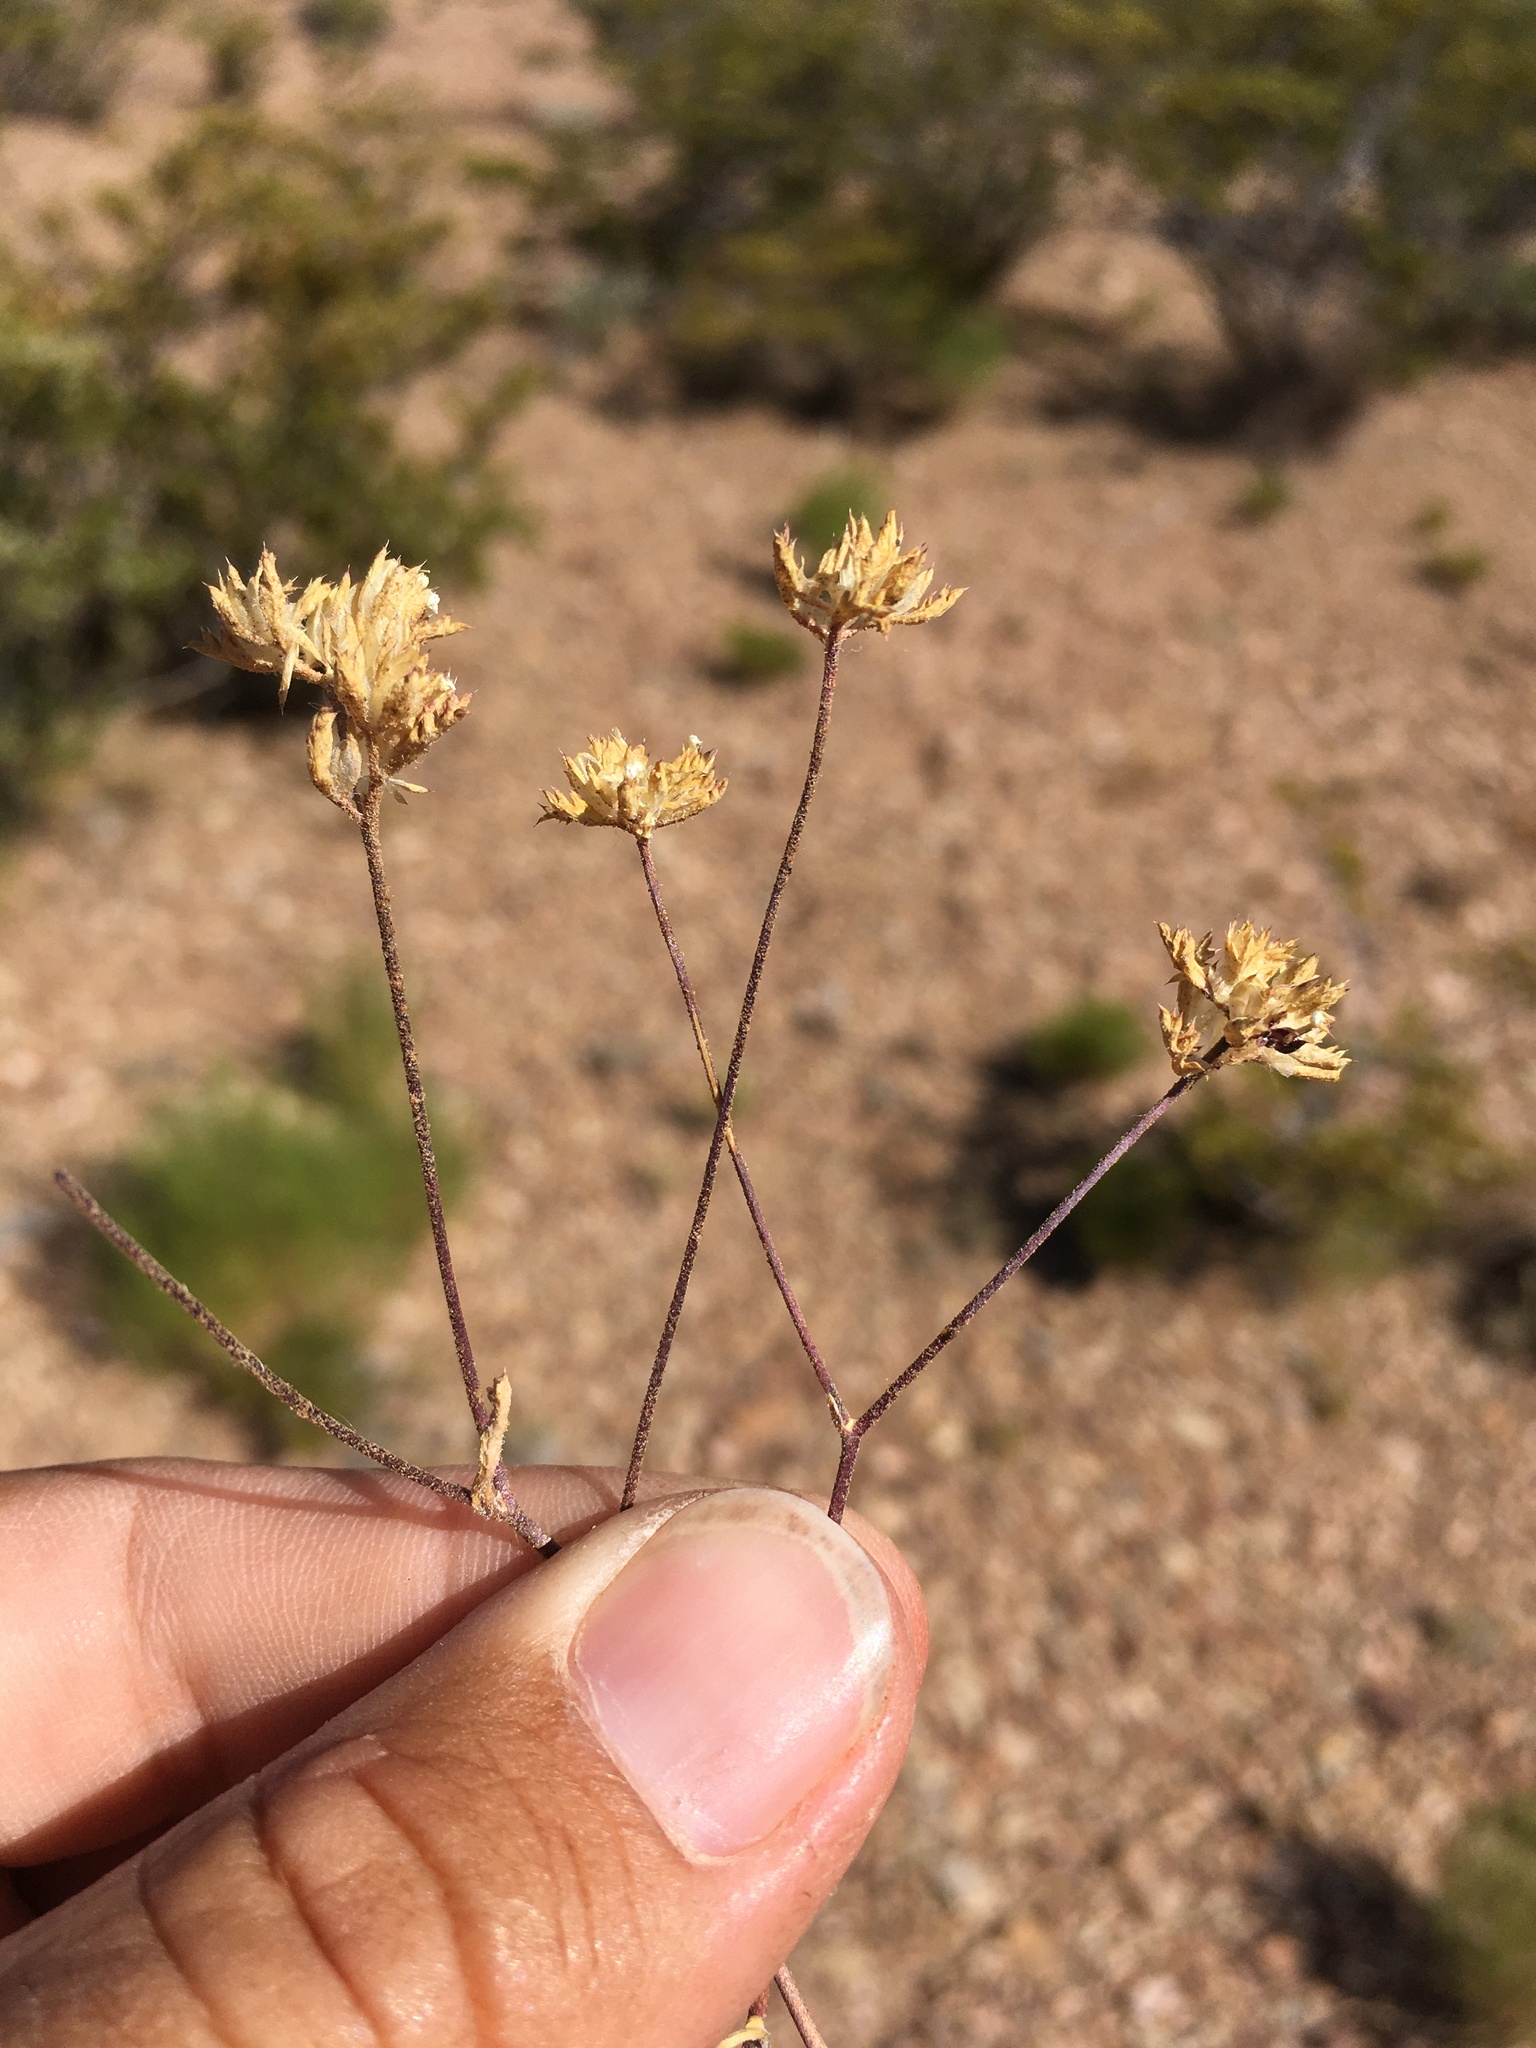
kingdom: Plantae
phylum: Tracheophyta
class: Magnoliopsida
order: Ericales
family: Polemoniaceae
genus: Ipomopsis
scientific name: Ipomopsis polycladon
